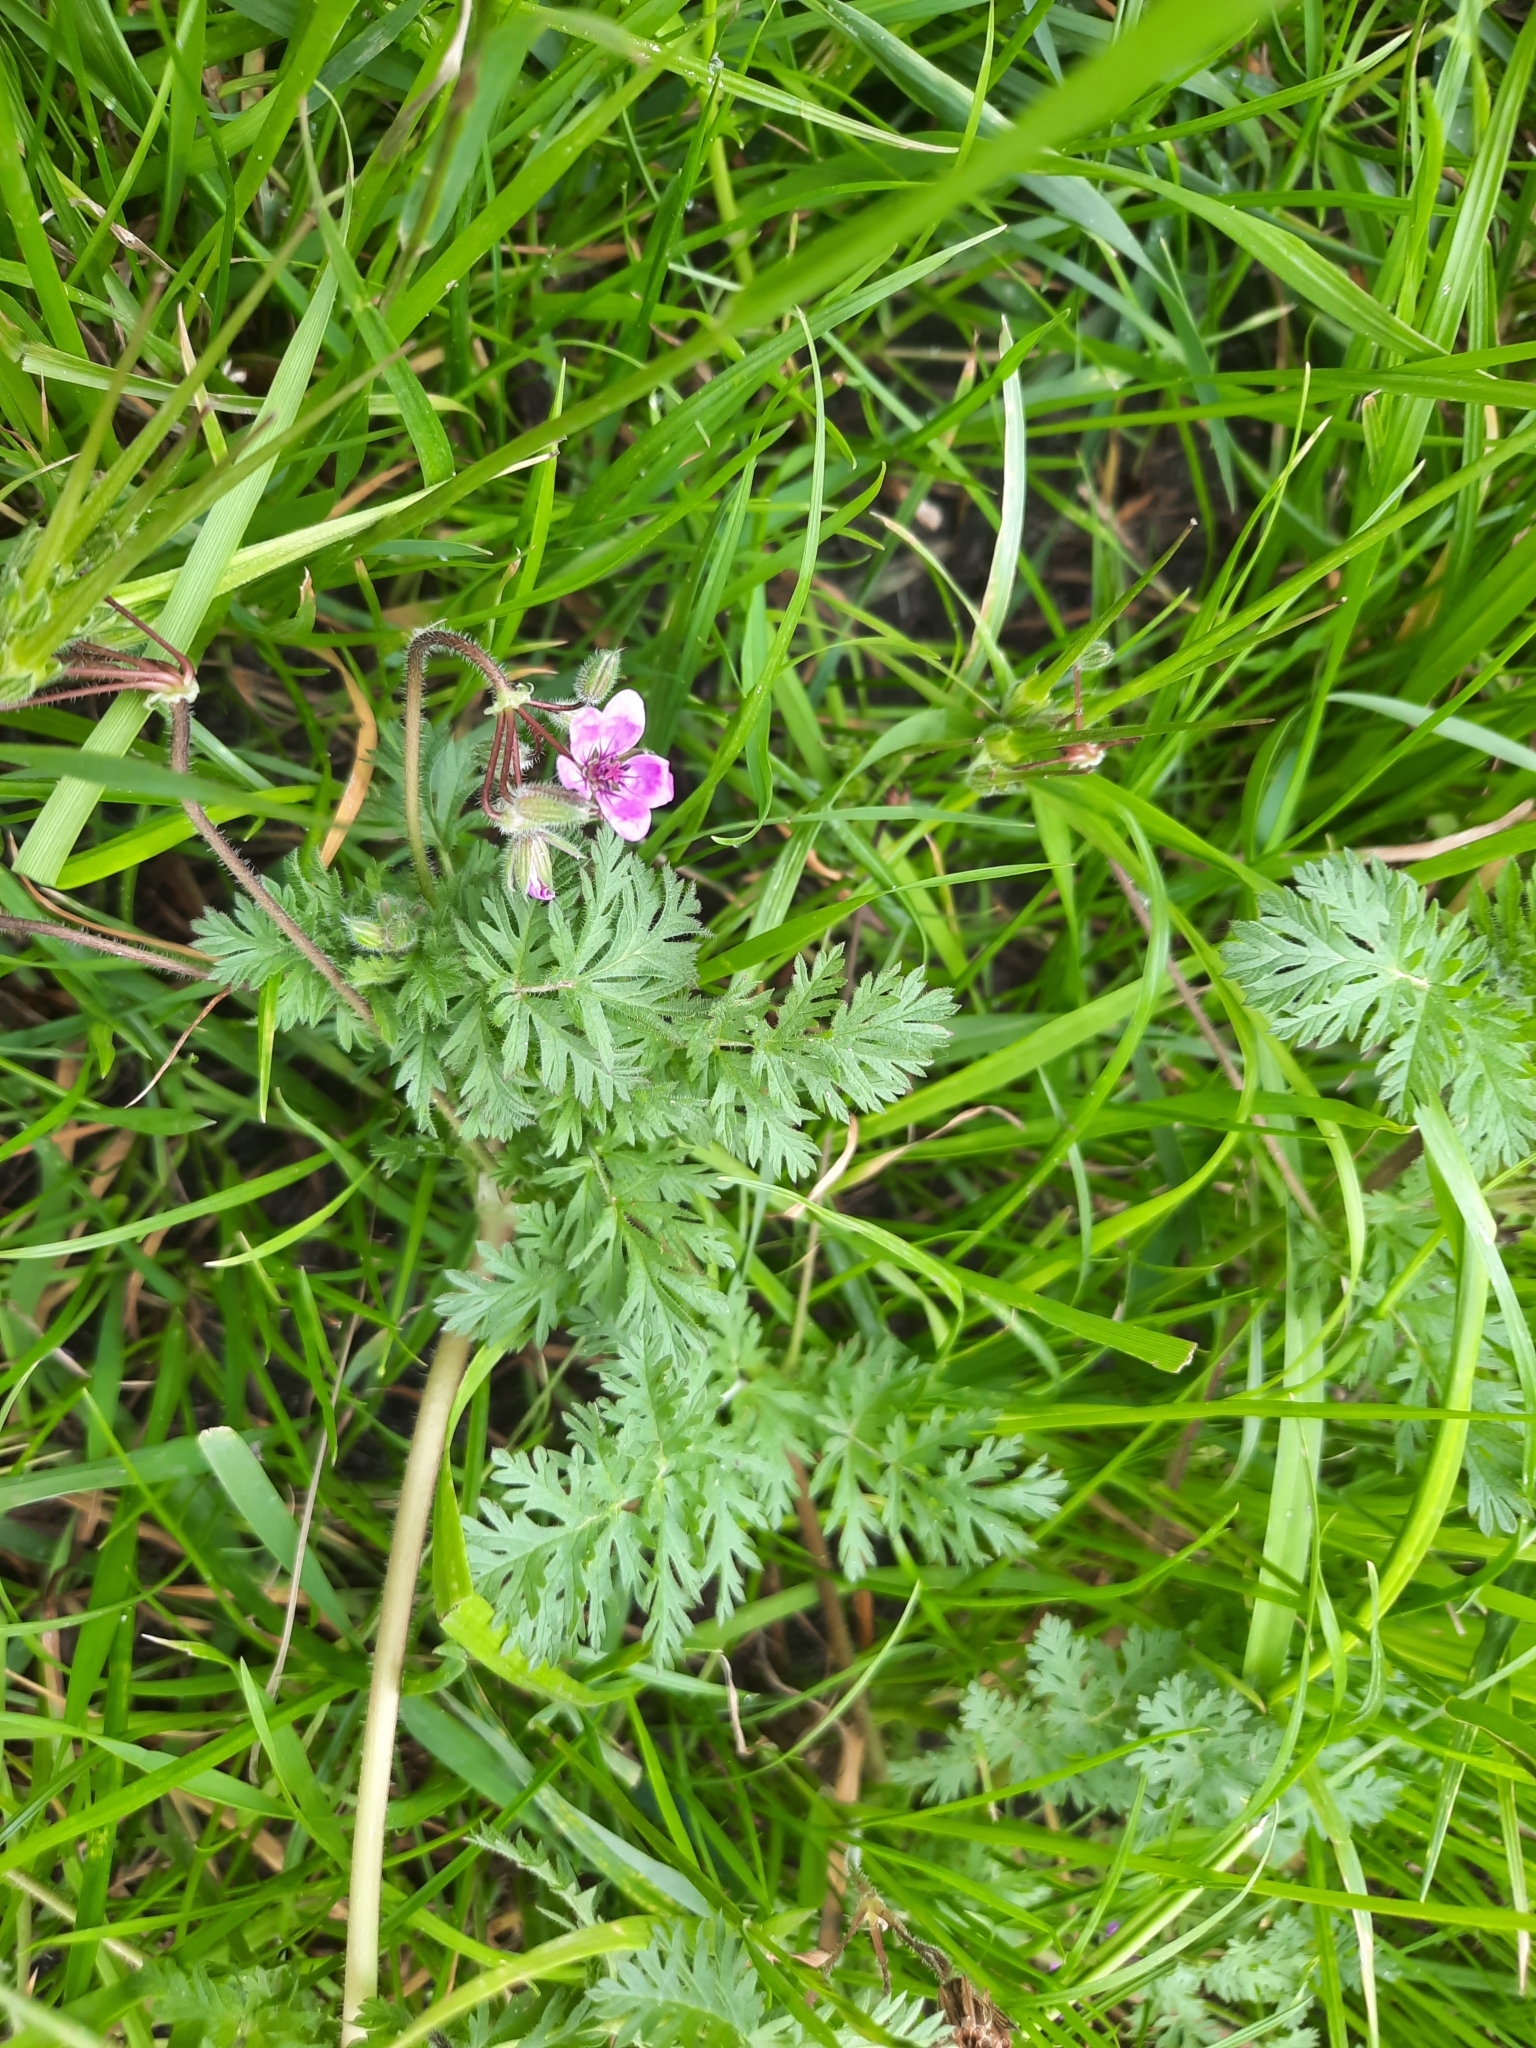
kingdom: Plantae
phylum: Tracheophyta
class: Magnoliopsida
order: Geraniales
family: Geraniaceae
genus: Erodium
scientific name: Erodium cicutarium
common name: Common stork's-bill
